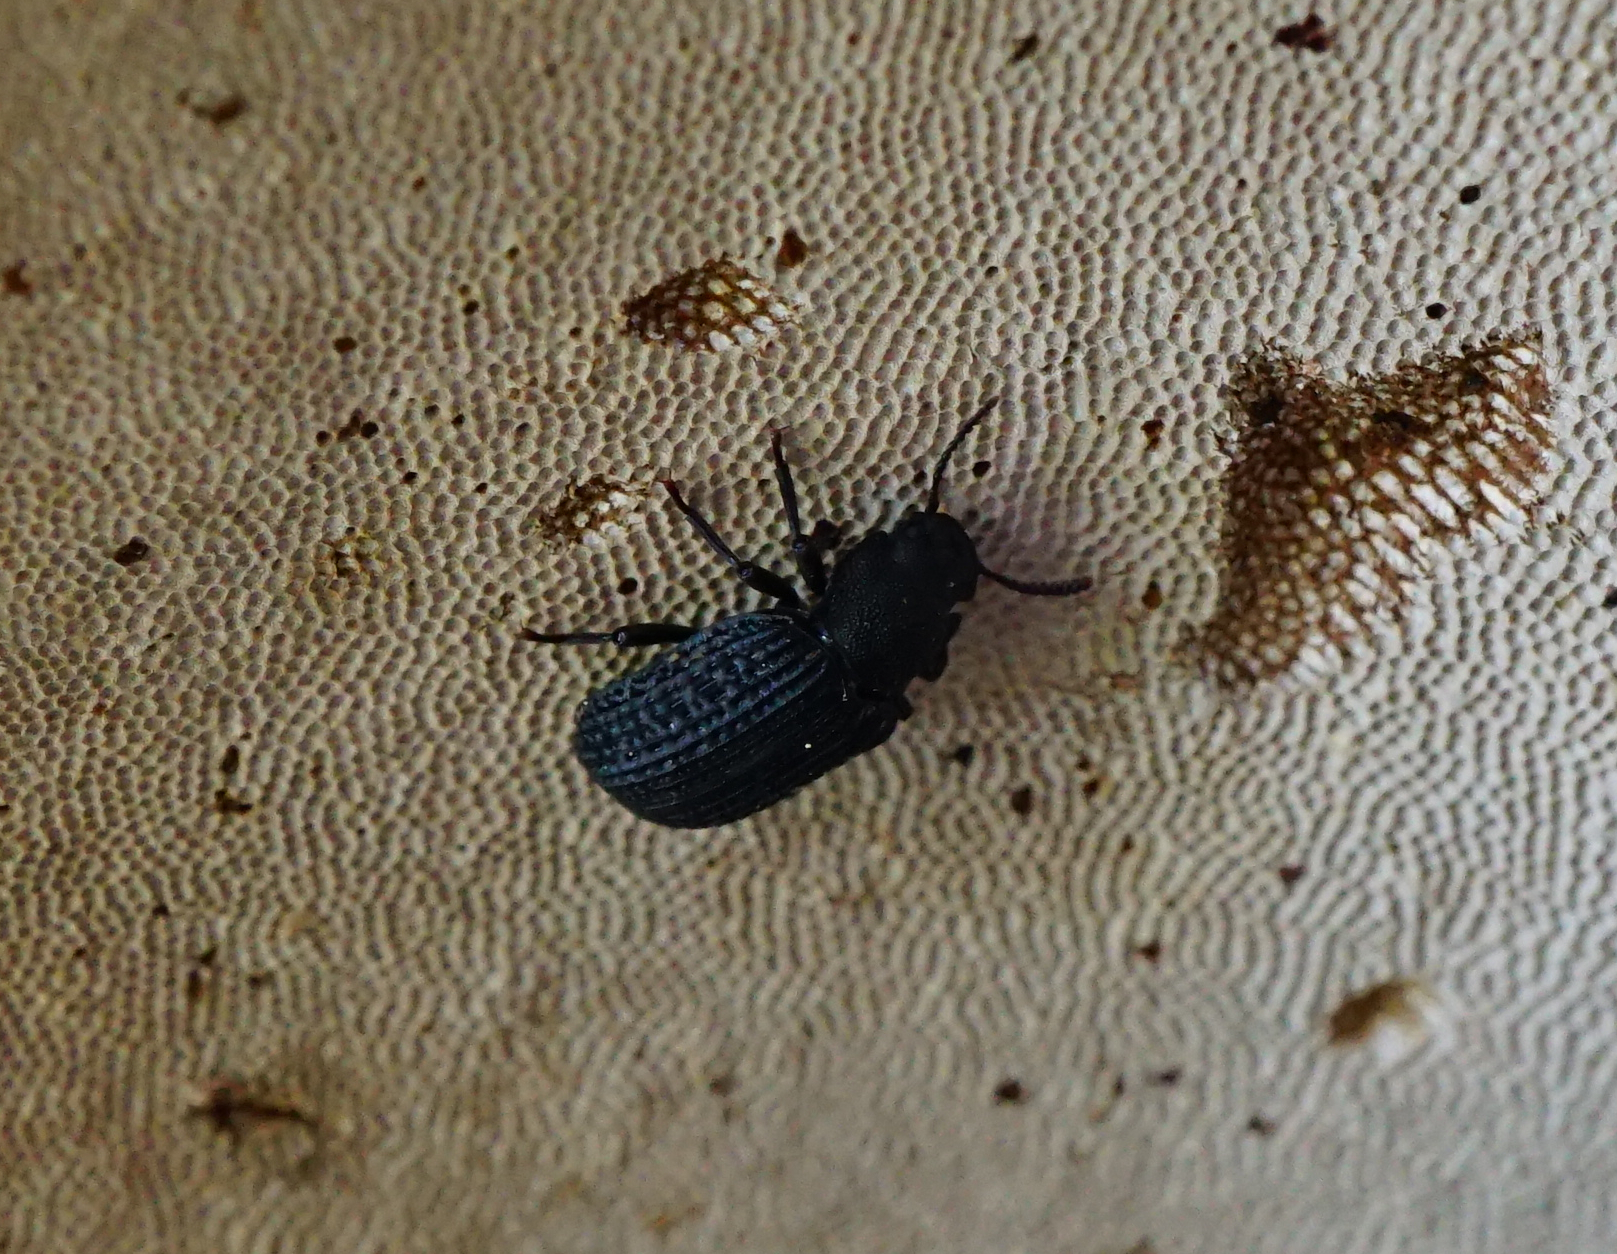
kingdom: Animalia
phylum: Arthropoda
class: Insecta
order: Coleoptera
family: Tenebrionidae
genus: Bolitophagus
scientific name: Bolitophagus reticulatus
